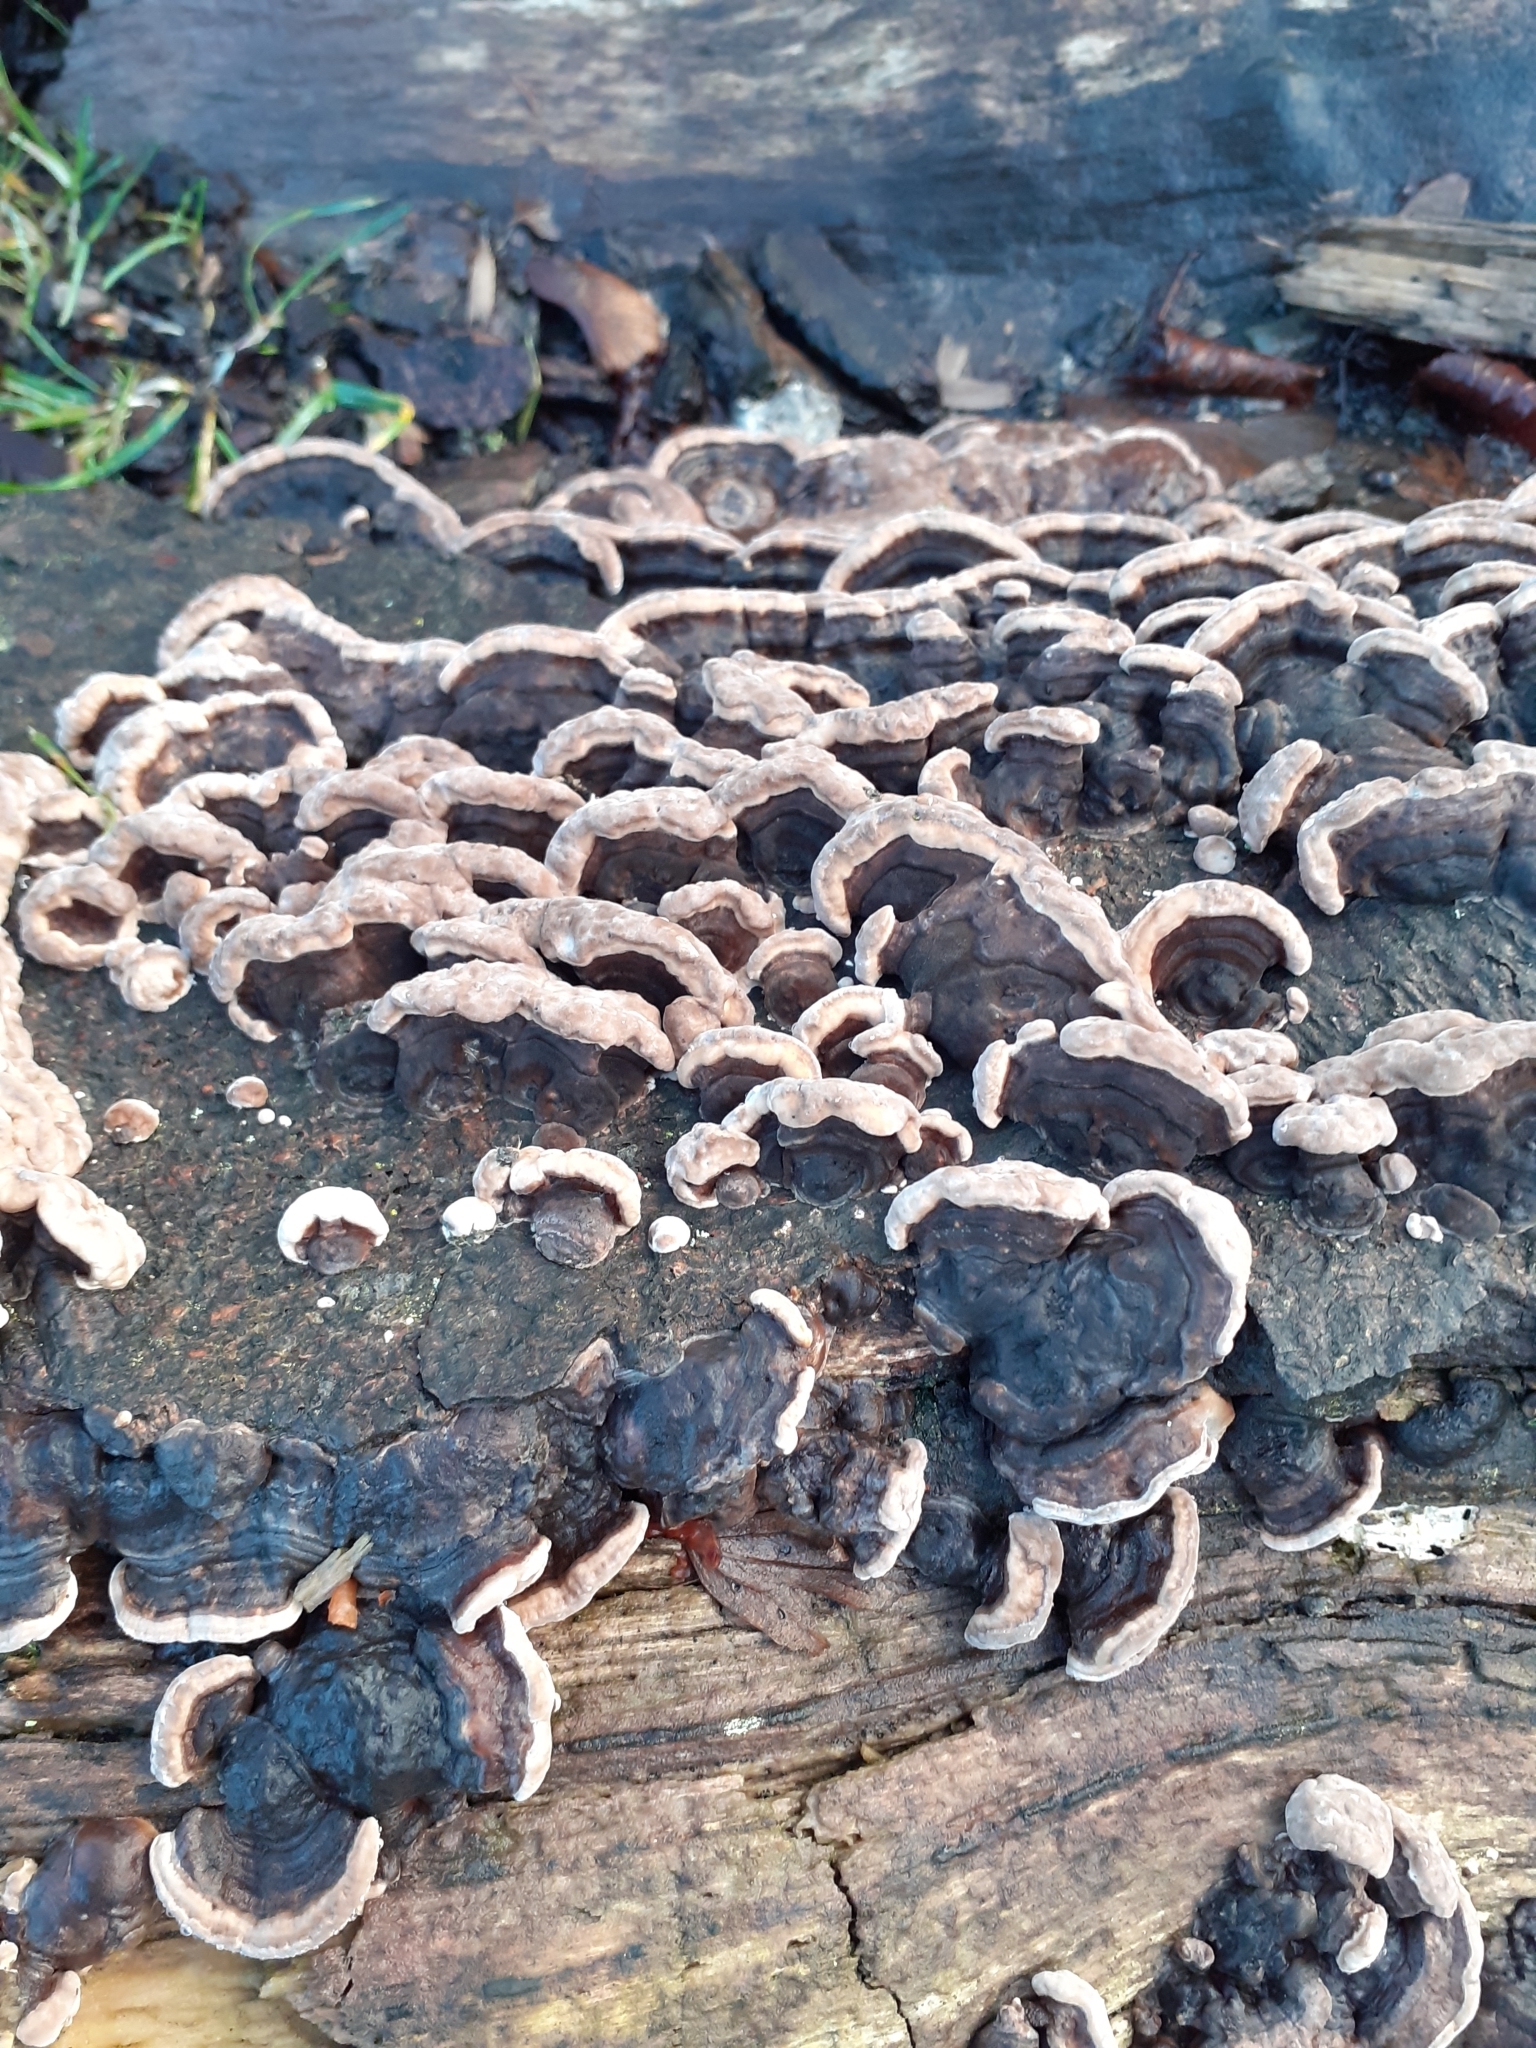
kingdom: Fungi
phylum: Basidiomycota
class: Agaricomycetes
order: Polyporales
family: Polyporaceae
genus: Ganoderma
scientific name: Ganoderma applanatum
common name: Artist's bracket
